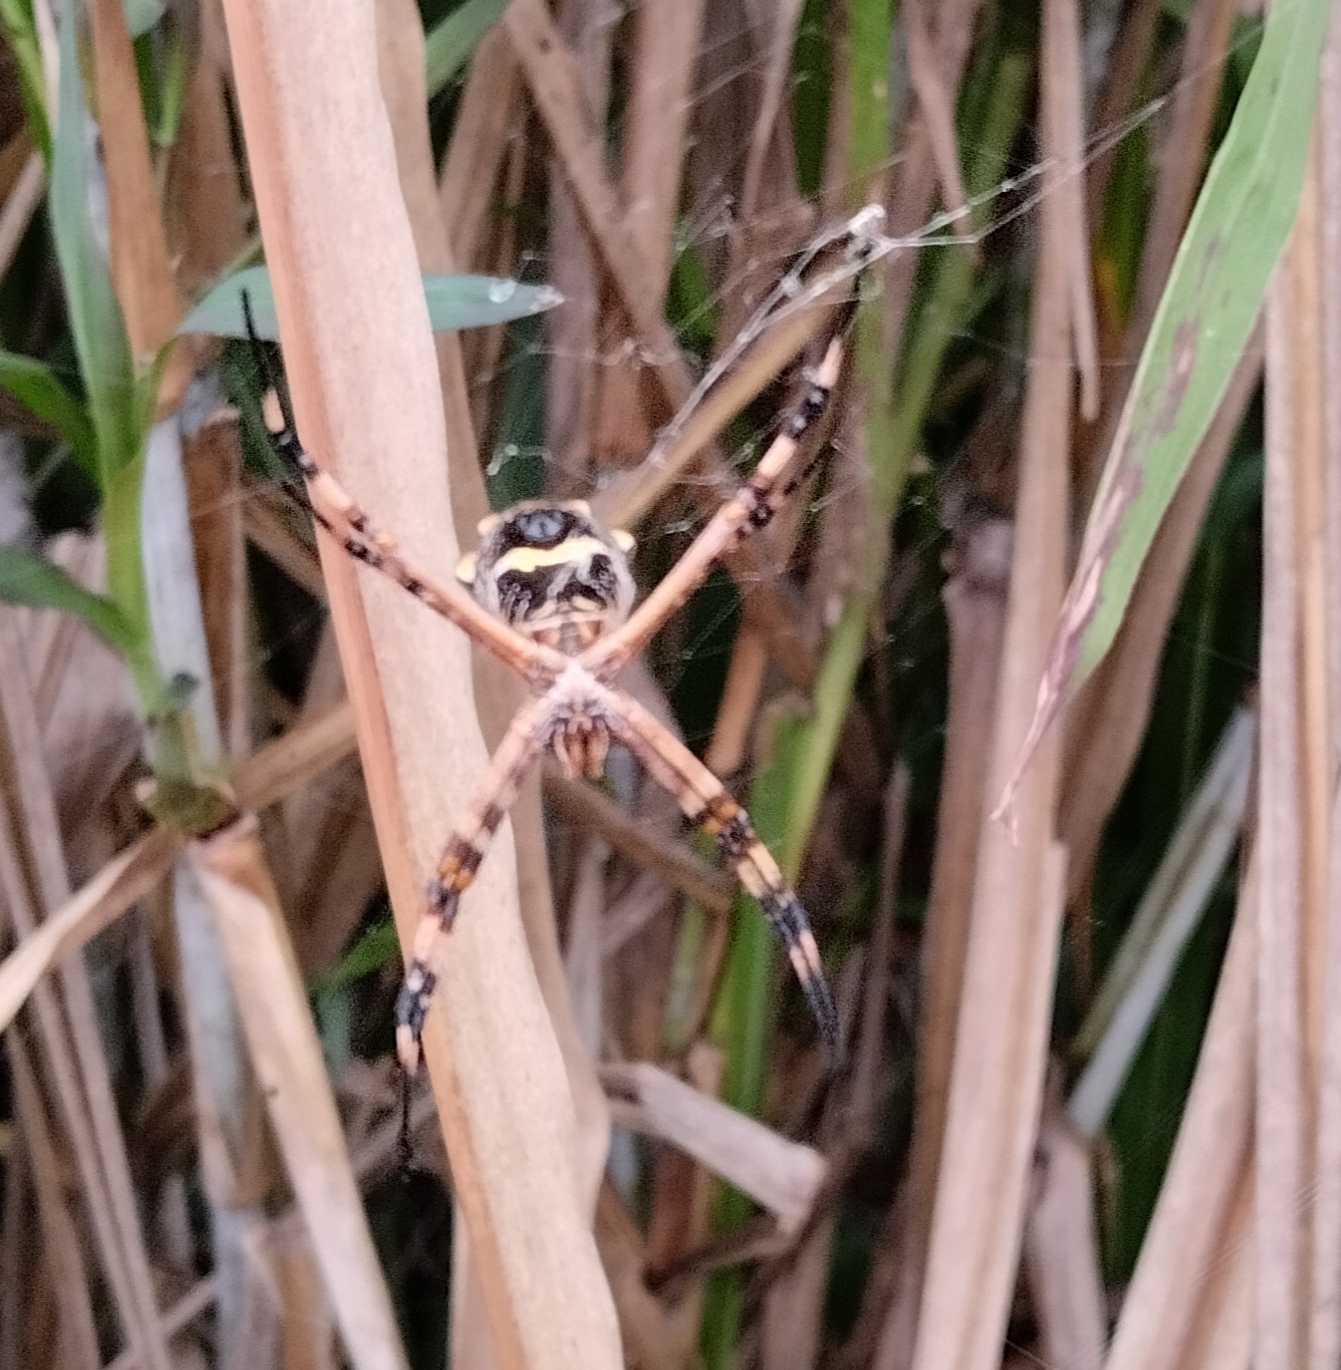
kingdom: Animalia
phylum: Arthropoda
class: Arachnida
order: Araneae
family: Araneidae
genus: Argiope
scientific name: Argiope argentata
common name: Orb weavers
